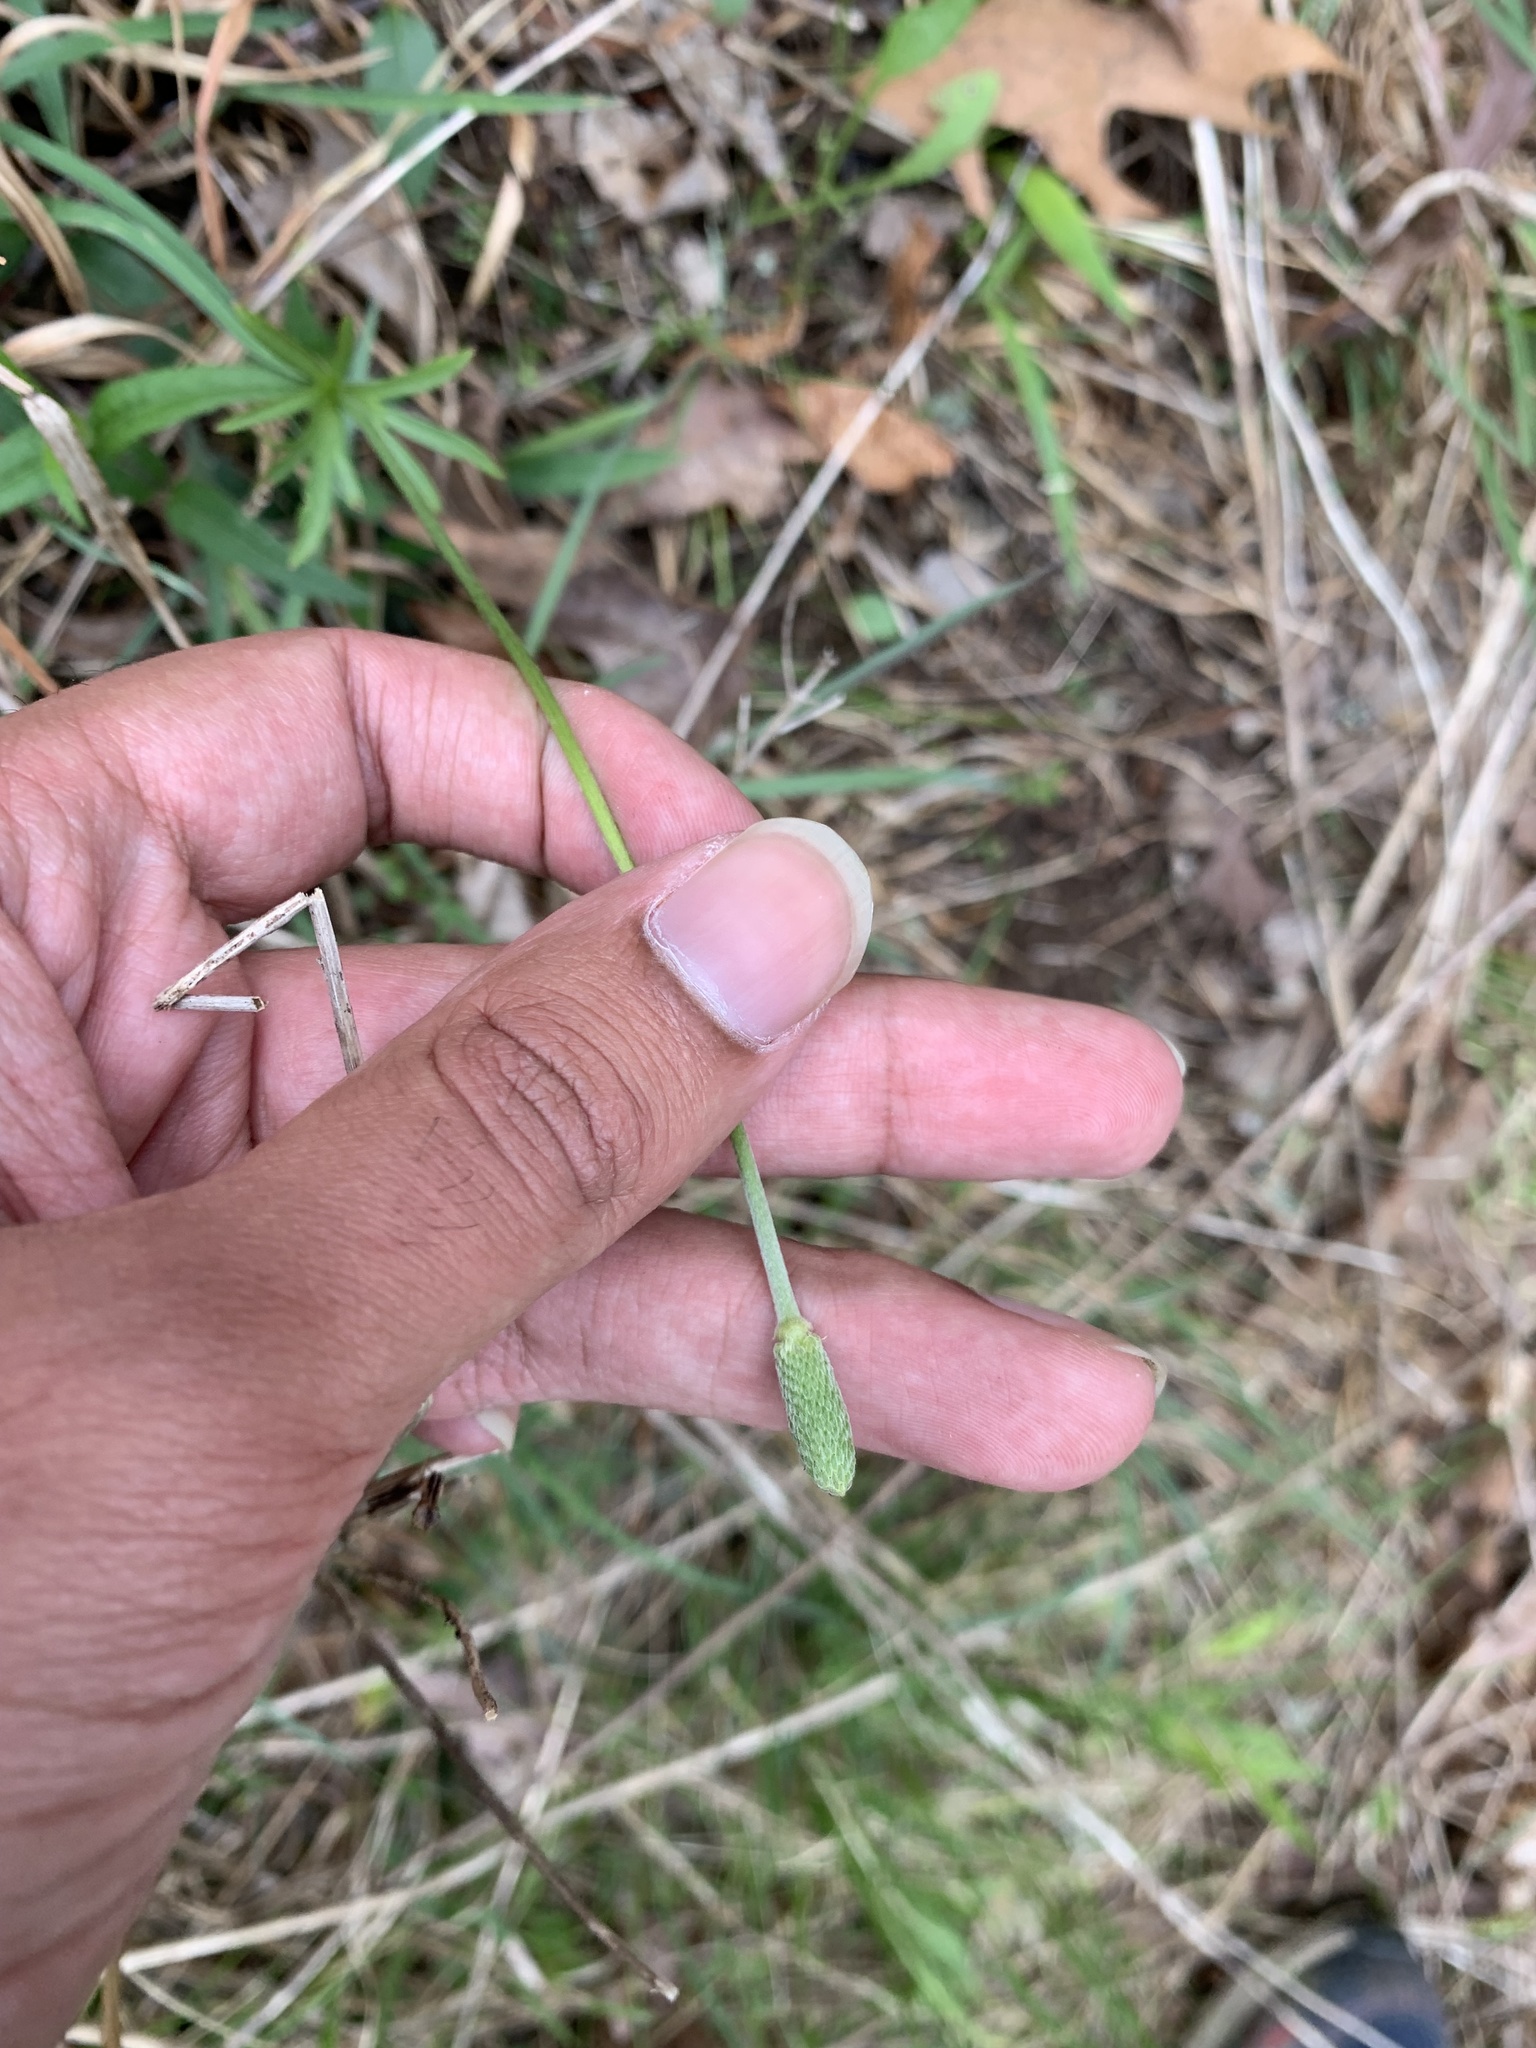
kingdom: Plantae
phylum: Tracheophyta
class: Magnoliopsida
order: Ranunculales
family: Ranunculaceae
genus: Anemone
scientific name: Anemone berlandieri
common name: Ten-petal anemone
